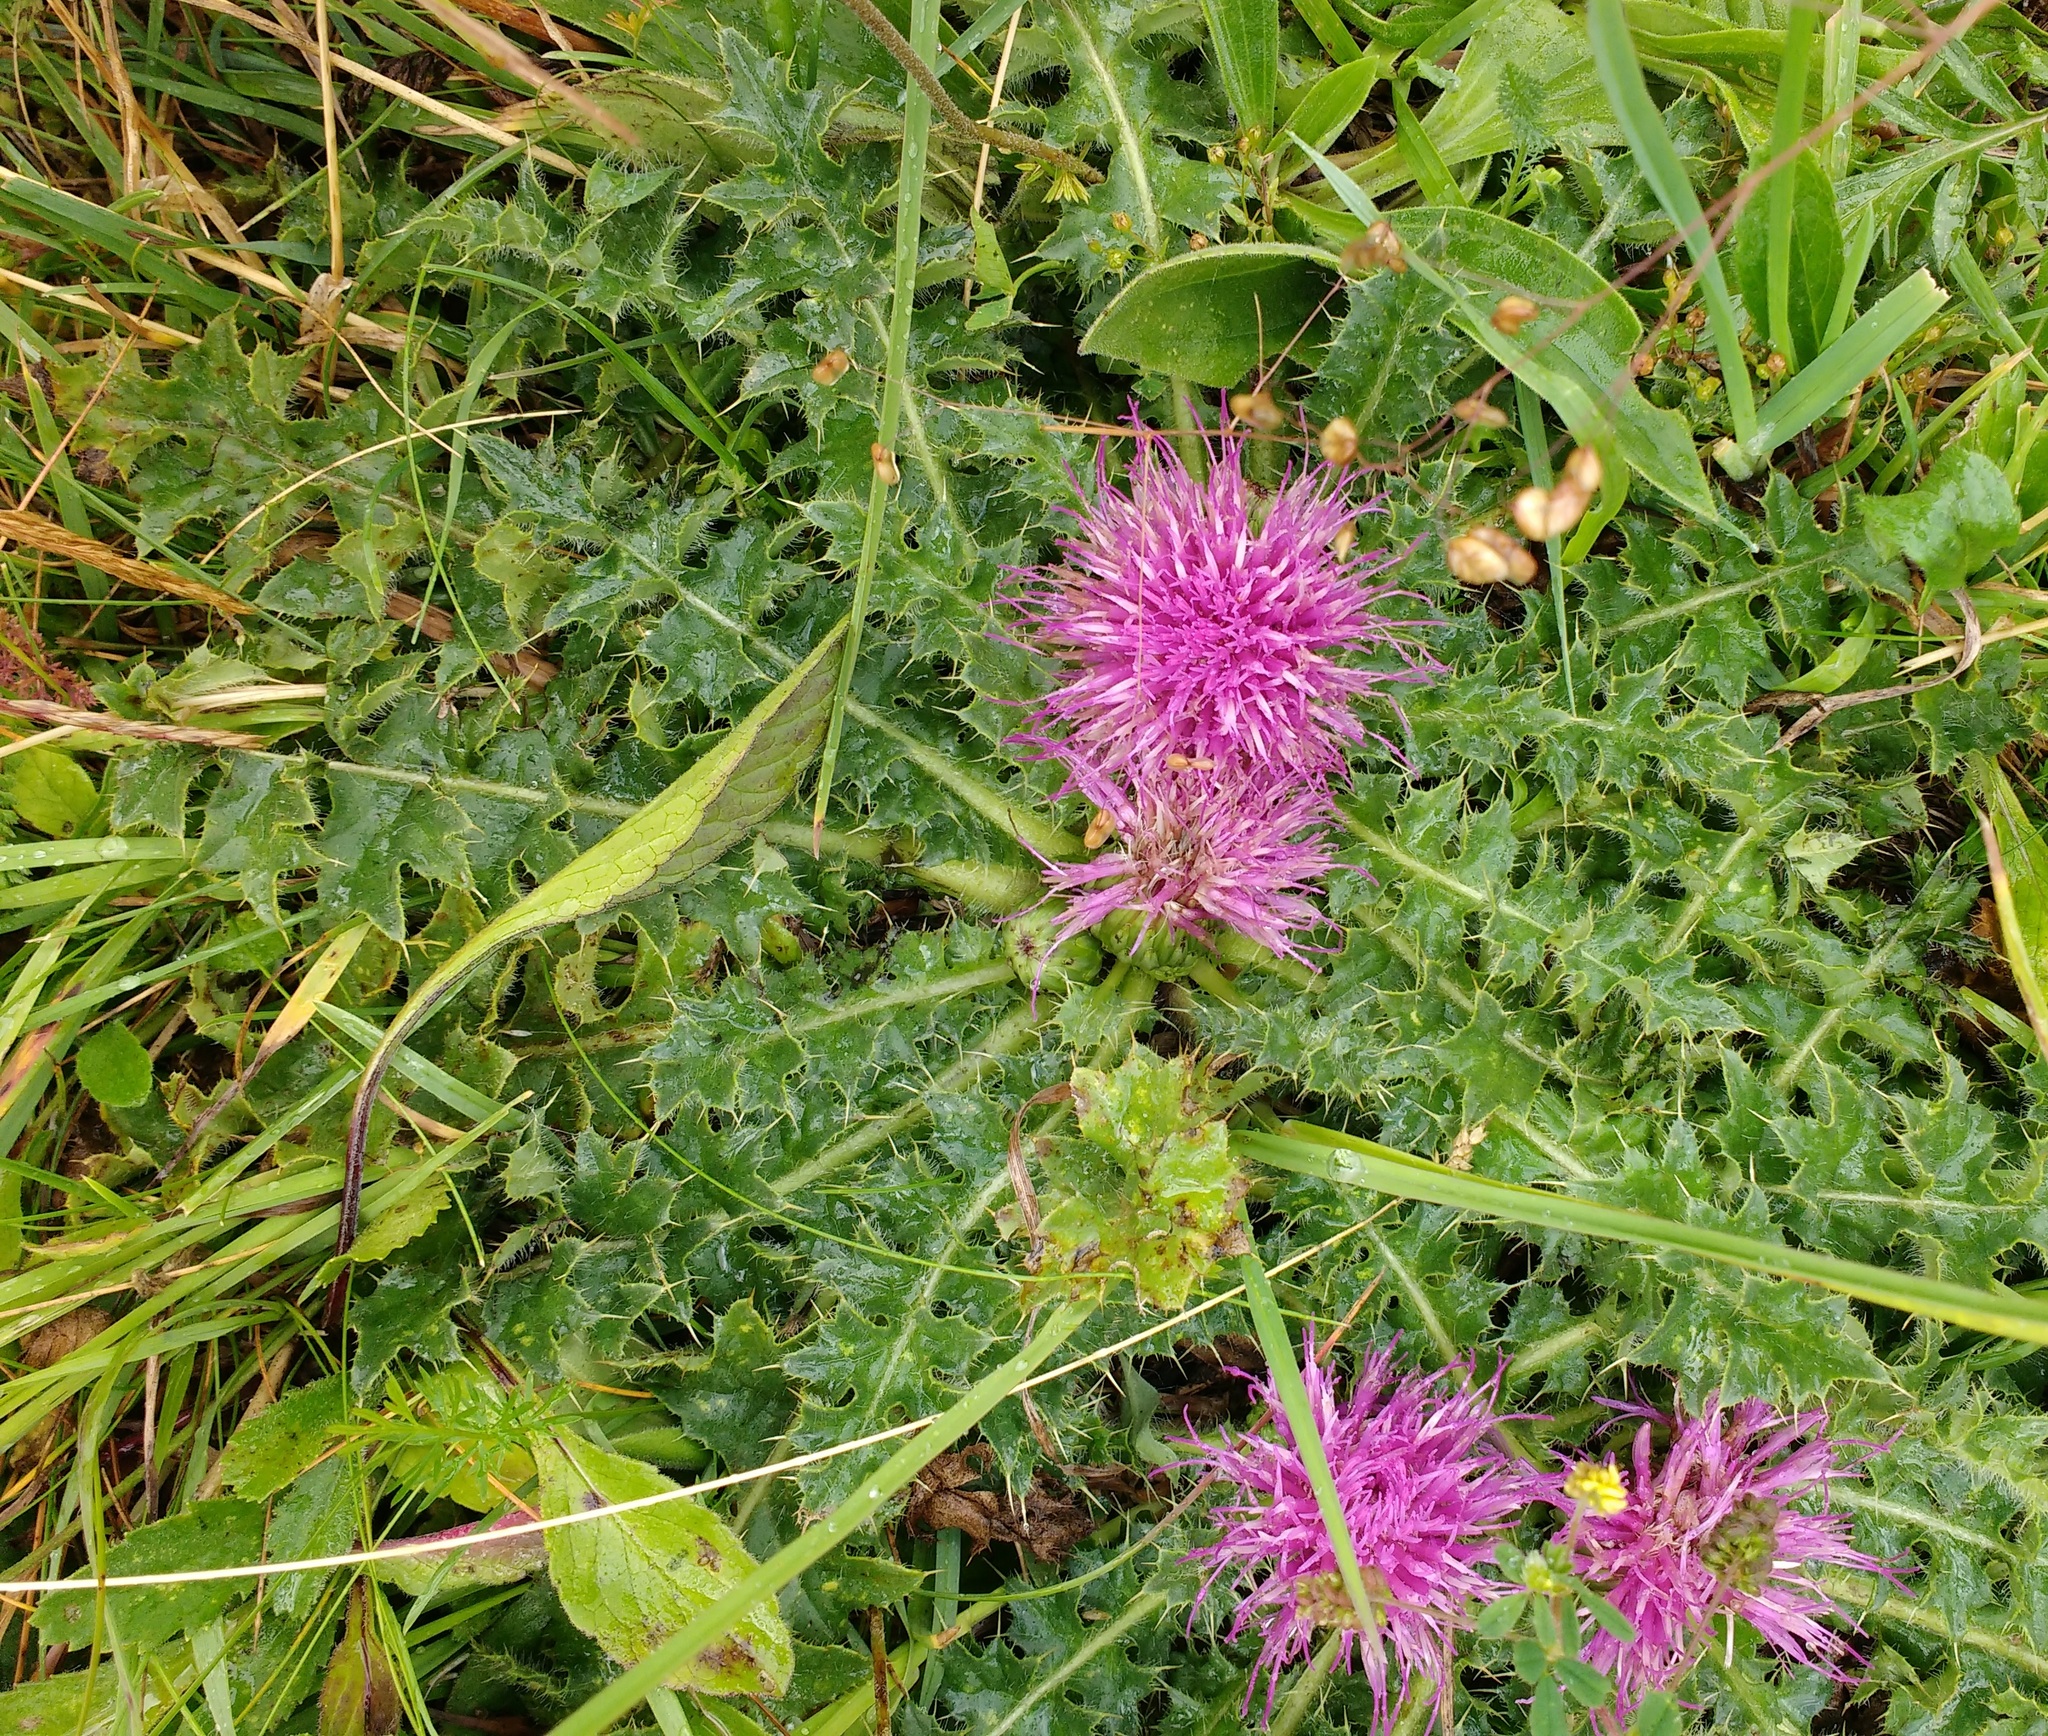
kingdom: Plantae
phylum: Tracheophyta
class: Magnoliopsida
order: Asterales
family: Asteraceae
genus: Cirsium
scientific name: Cirsium acaulon
